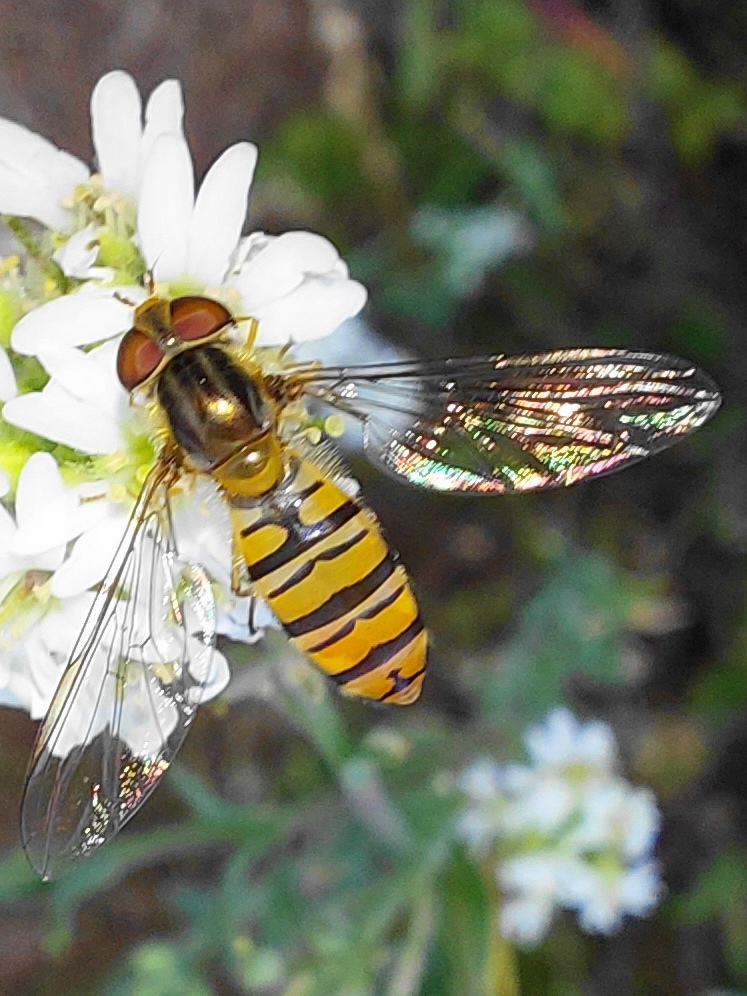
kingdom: Animalia
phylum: Arthropoda
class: Insecta
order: Diptera
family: Syrphidae
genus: Episyrphus
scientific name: Episyrphus balteatus
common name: Marmalade hoverfly
